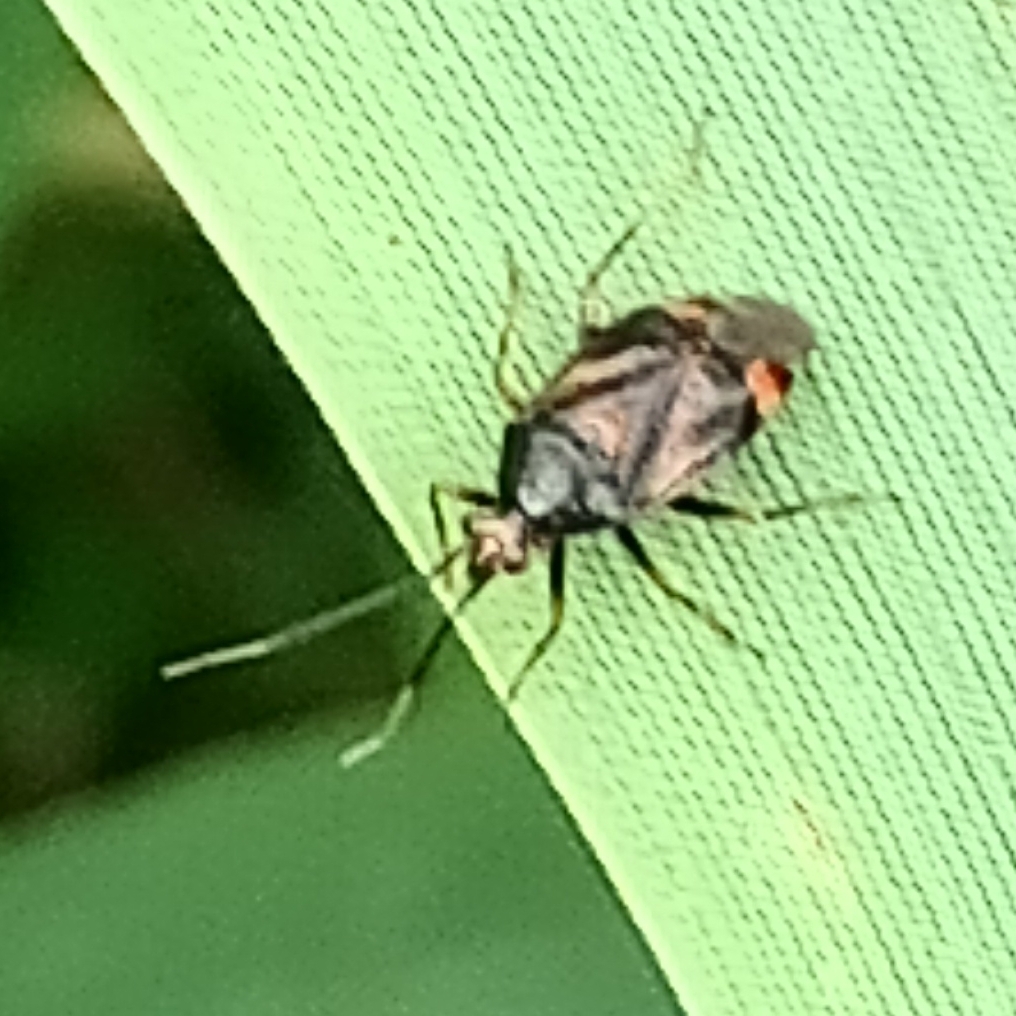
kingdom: Animalia
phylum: Arthropoda
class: Insecta
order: Hemiptera
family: Miridae
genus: Deraeocoris
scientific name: Deraeocoris ruber
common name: Plant bug
